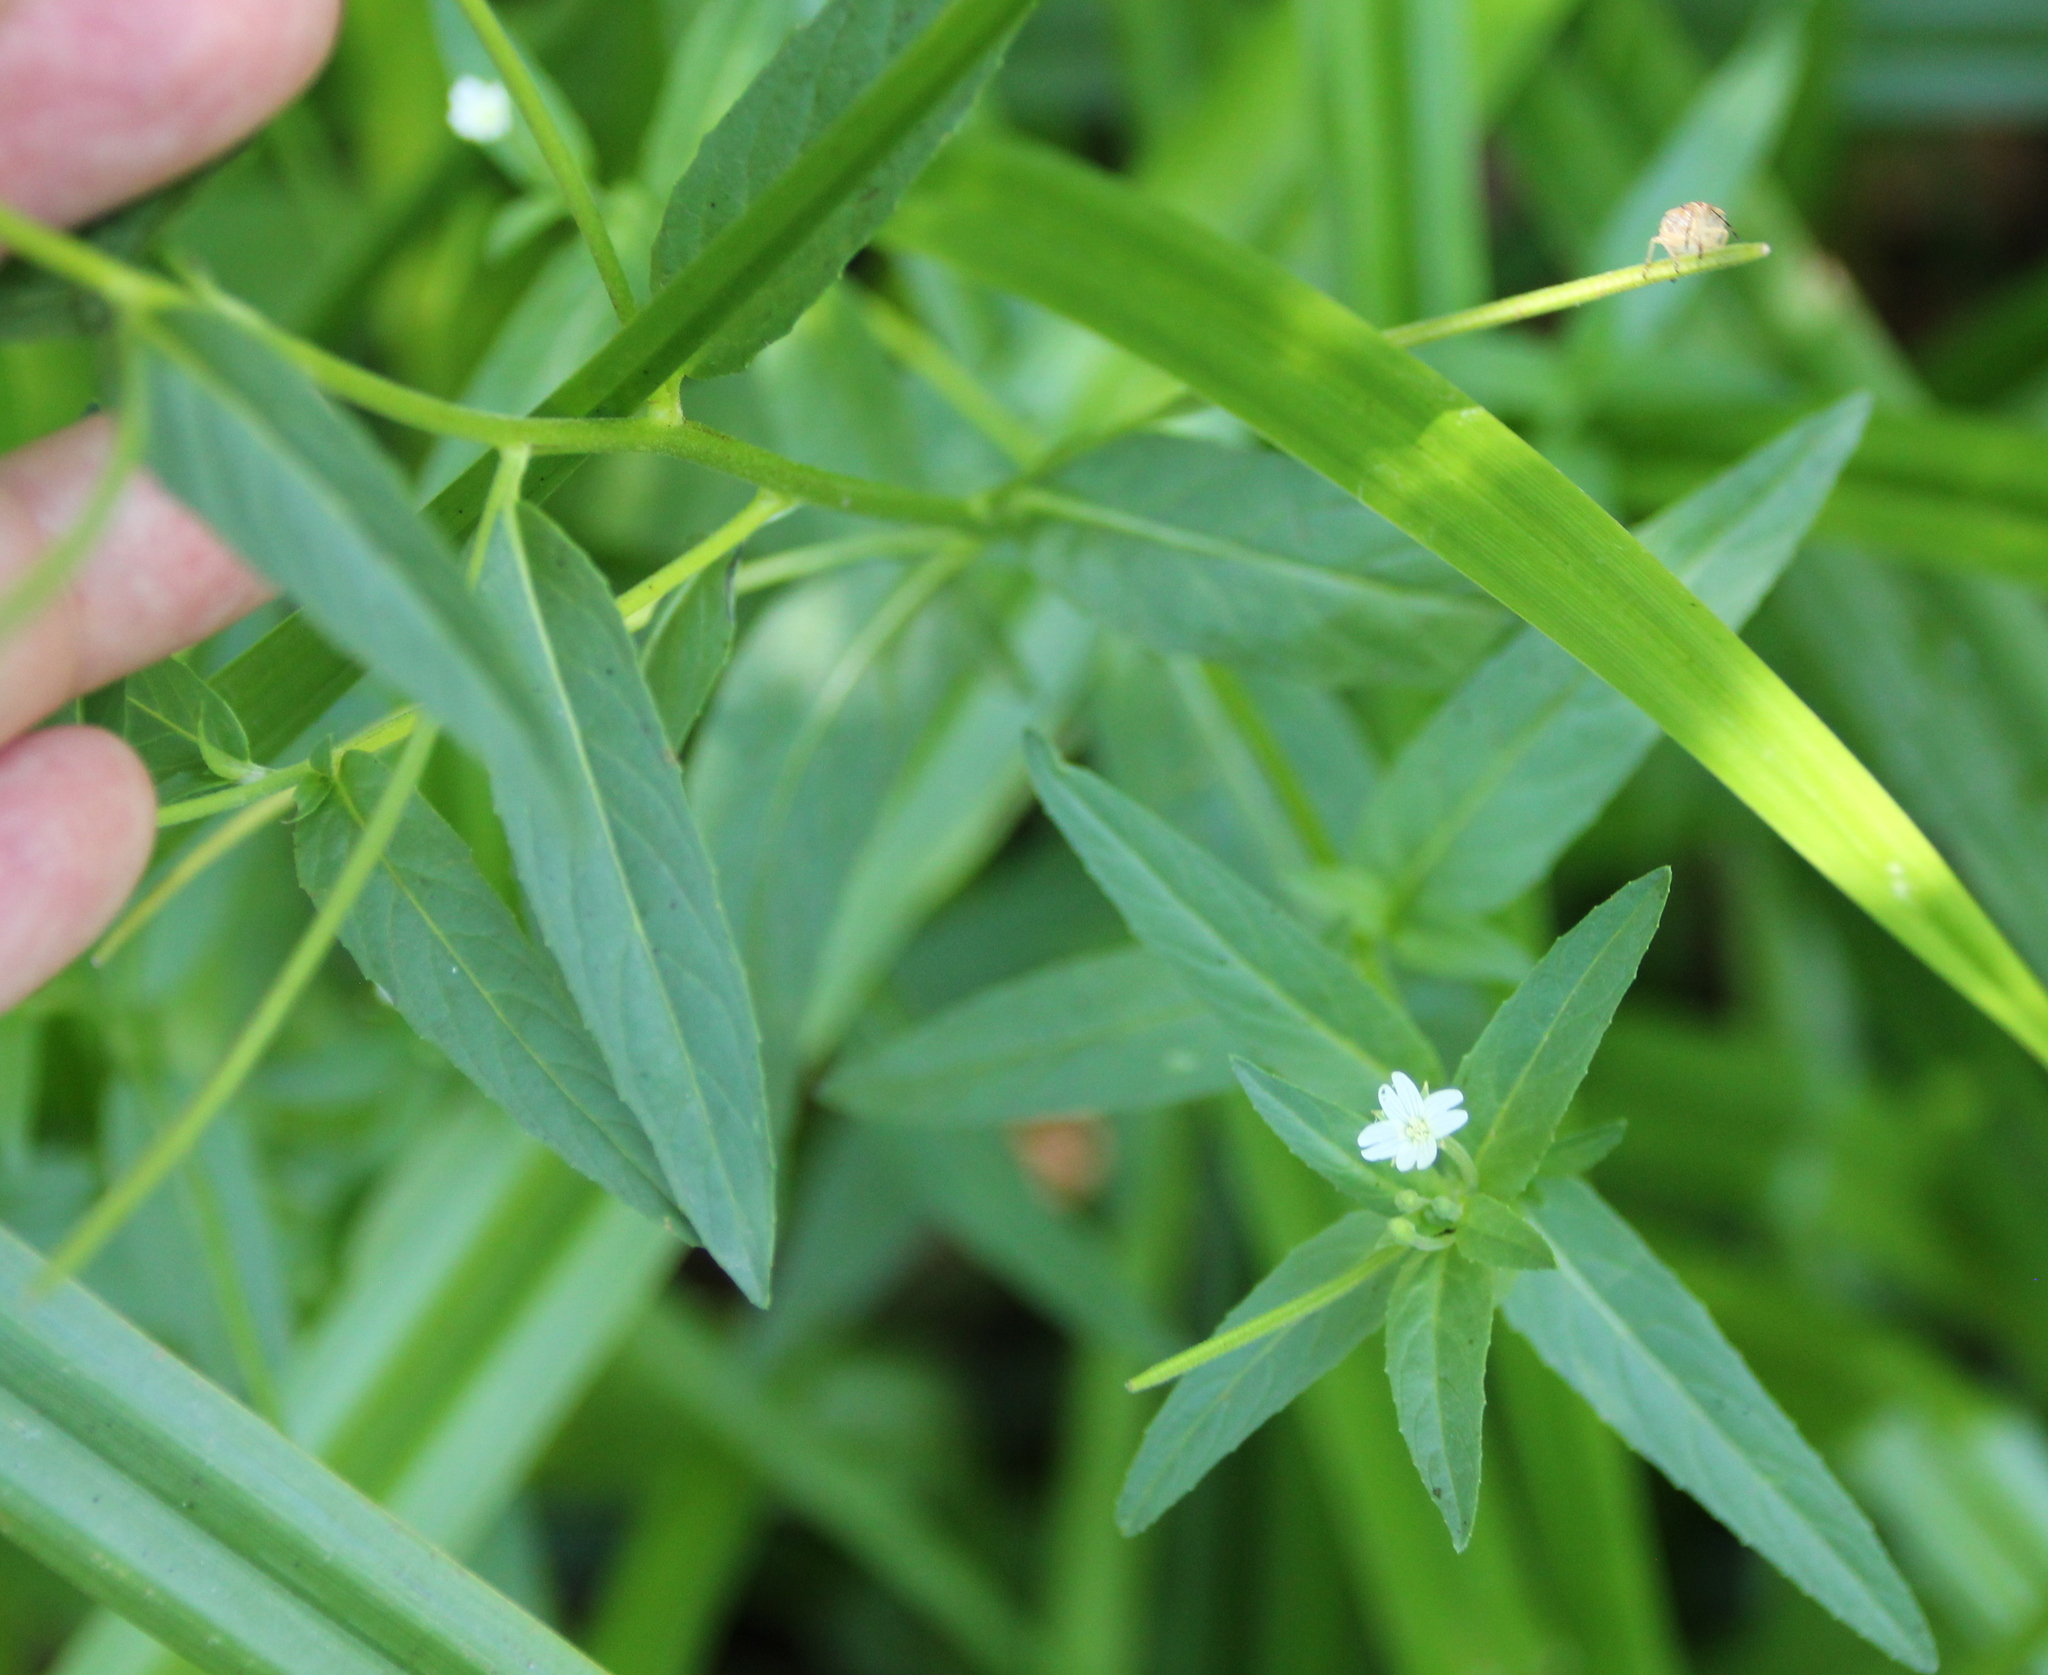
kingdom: Plantae
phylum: Tracheophyta
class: Magnoliopsida
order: Myrtales
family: Onagraceae
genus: Epilobium
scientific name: Epilobium ciliatum
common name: American willowherb
